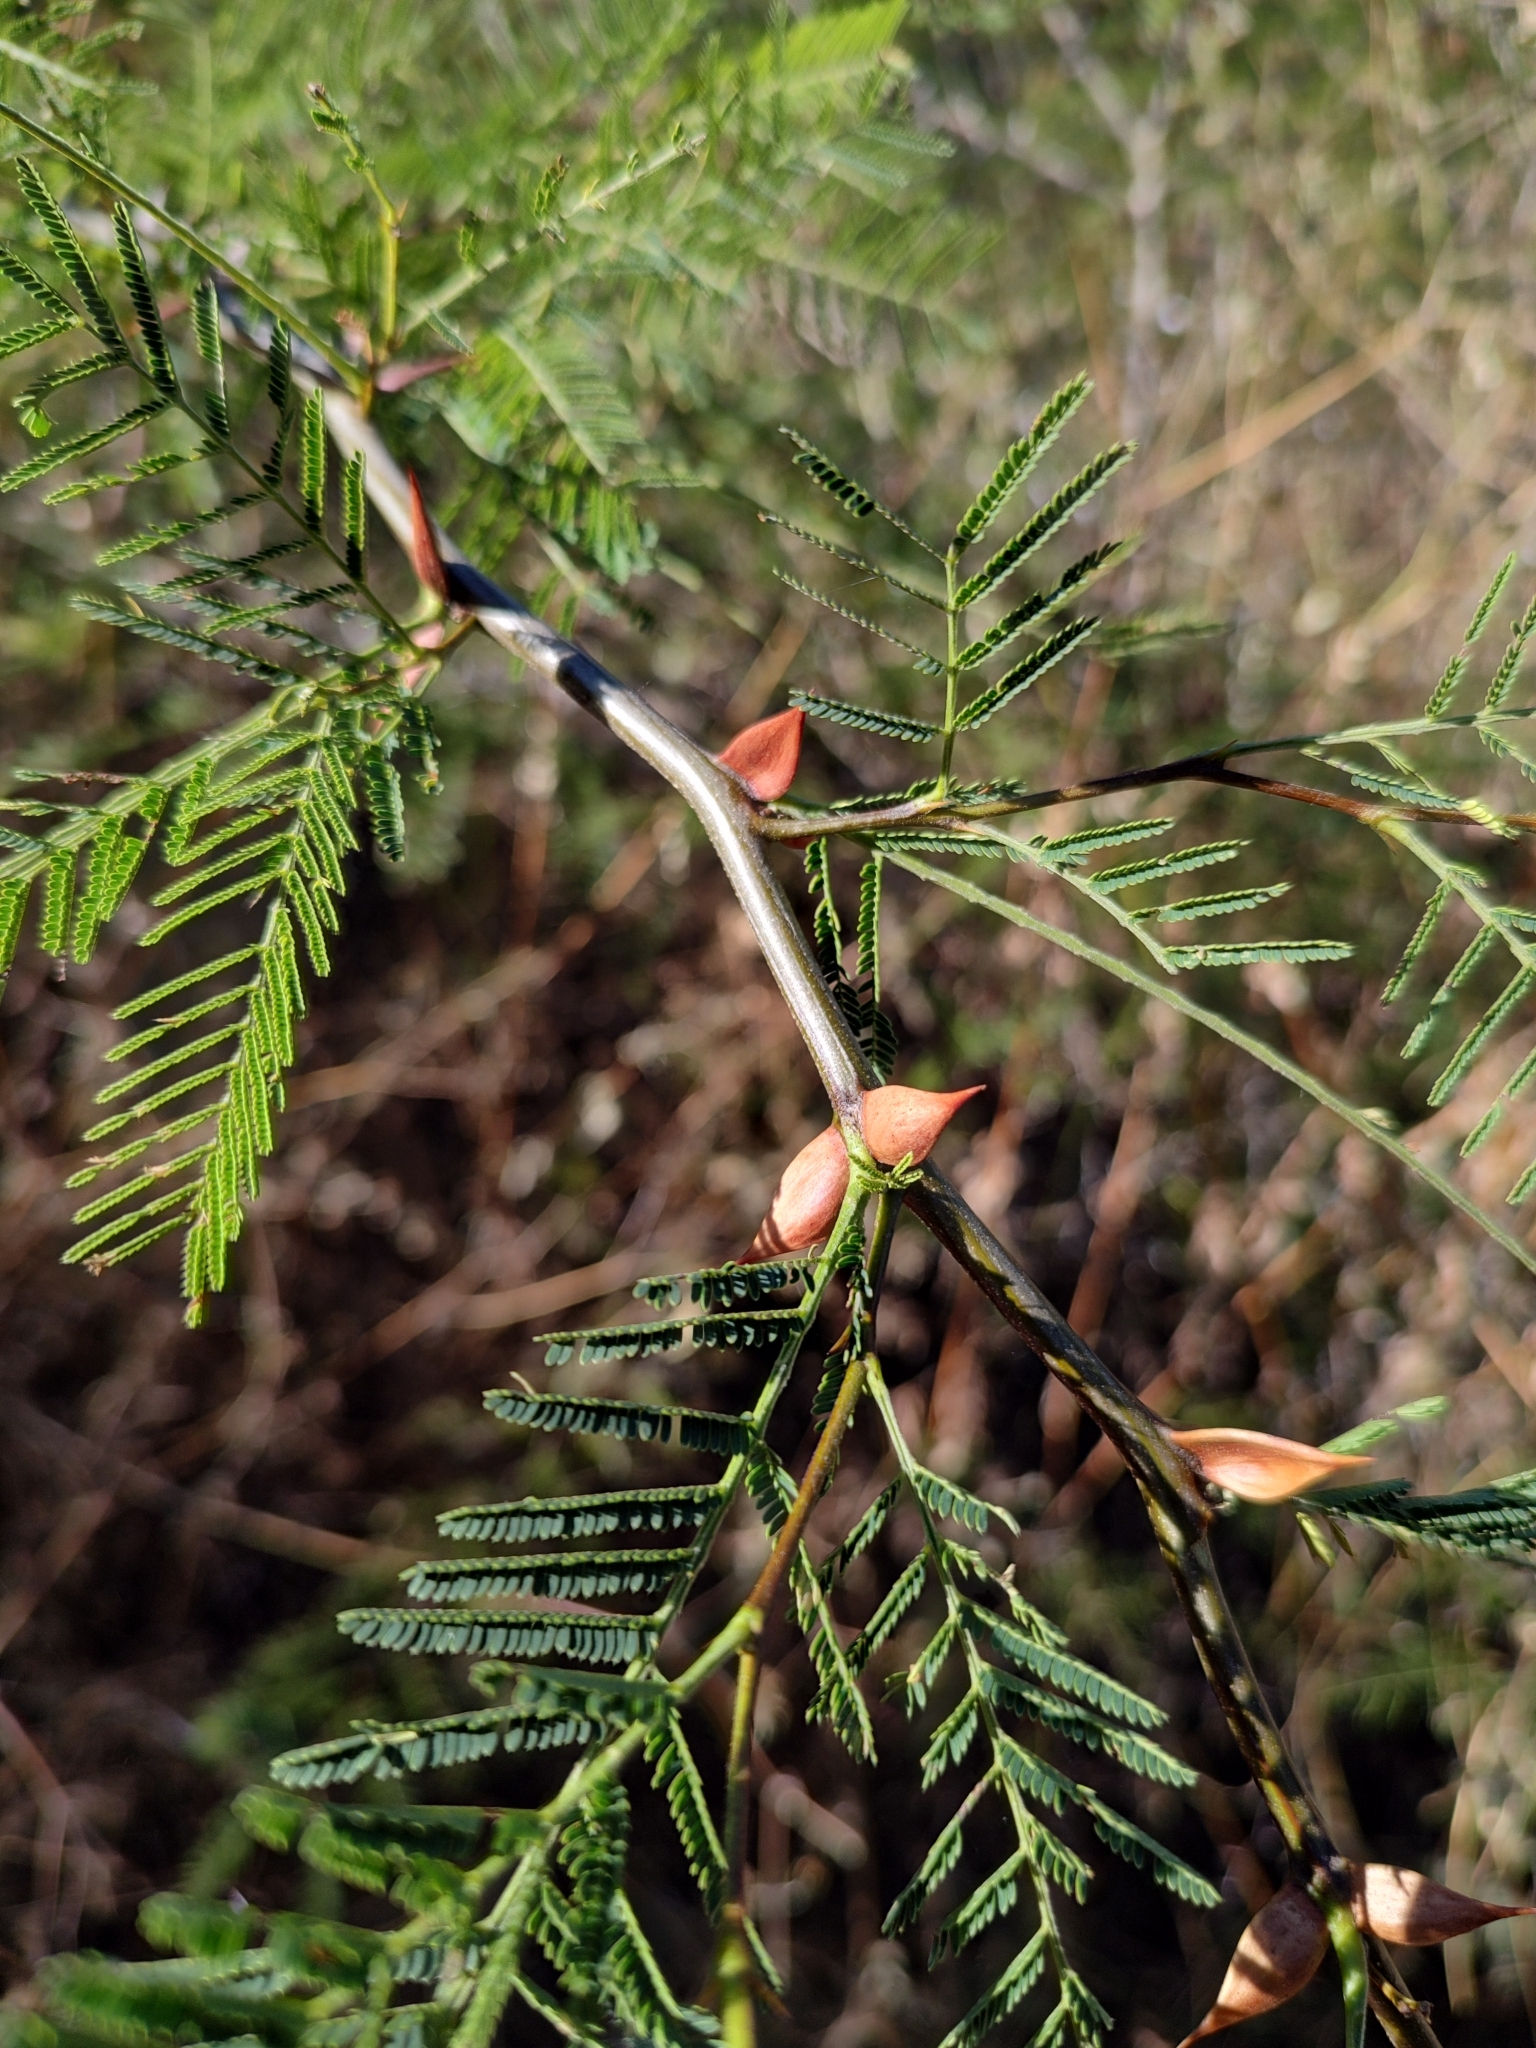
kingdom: Plantae
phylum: Tracheophyta
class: Magnoliopsida
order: Fabales
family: Fabaceae
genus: Vachellia
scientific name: Vachellia campechiana
